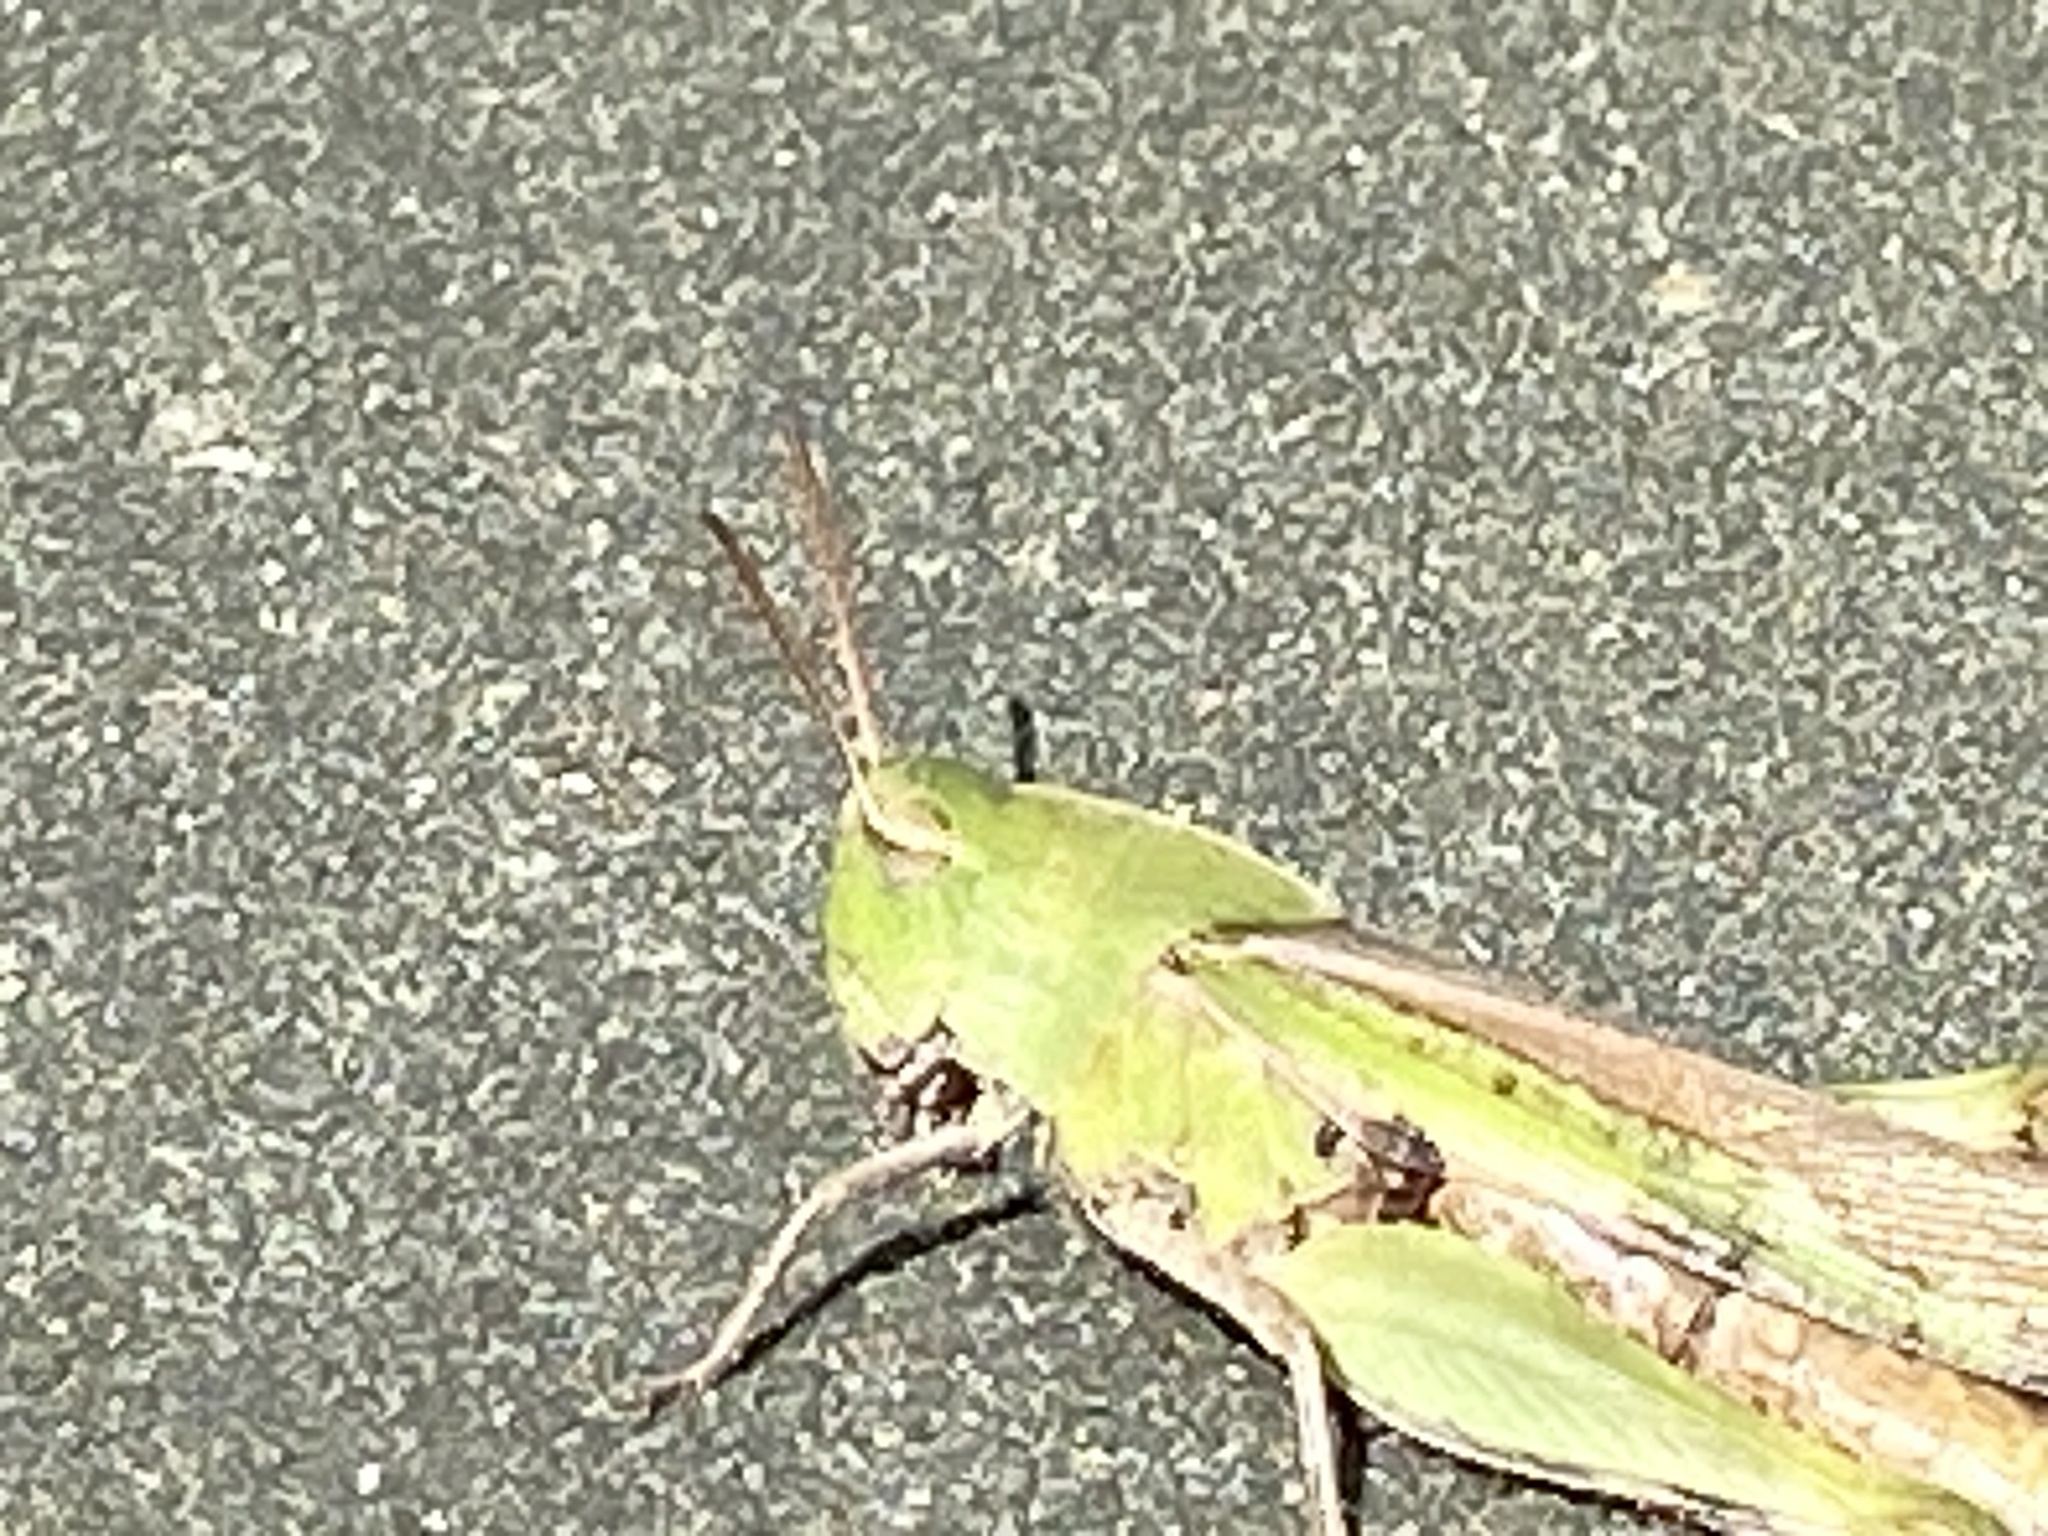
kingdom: Animalia
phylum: Arthropoda
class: Insecta
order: Orthoptera
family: Acrididae
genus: Chortophaga
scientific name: Chortophaga viridifasciata
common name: Green-striped grasshopper
